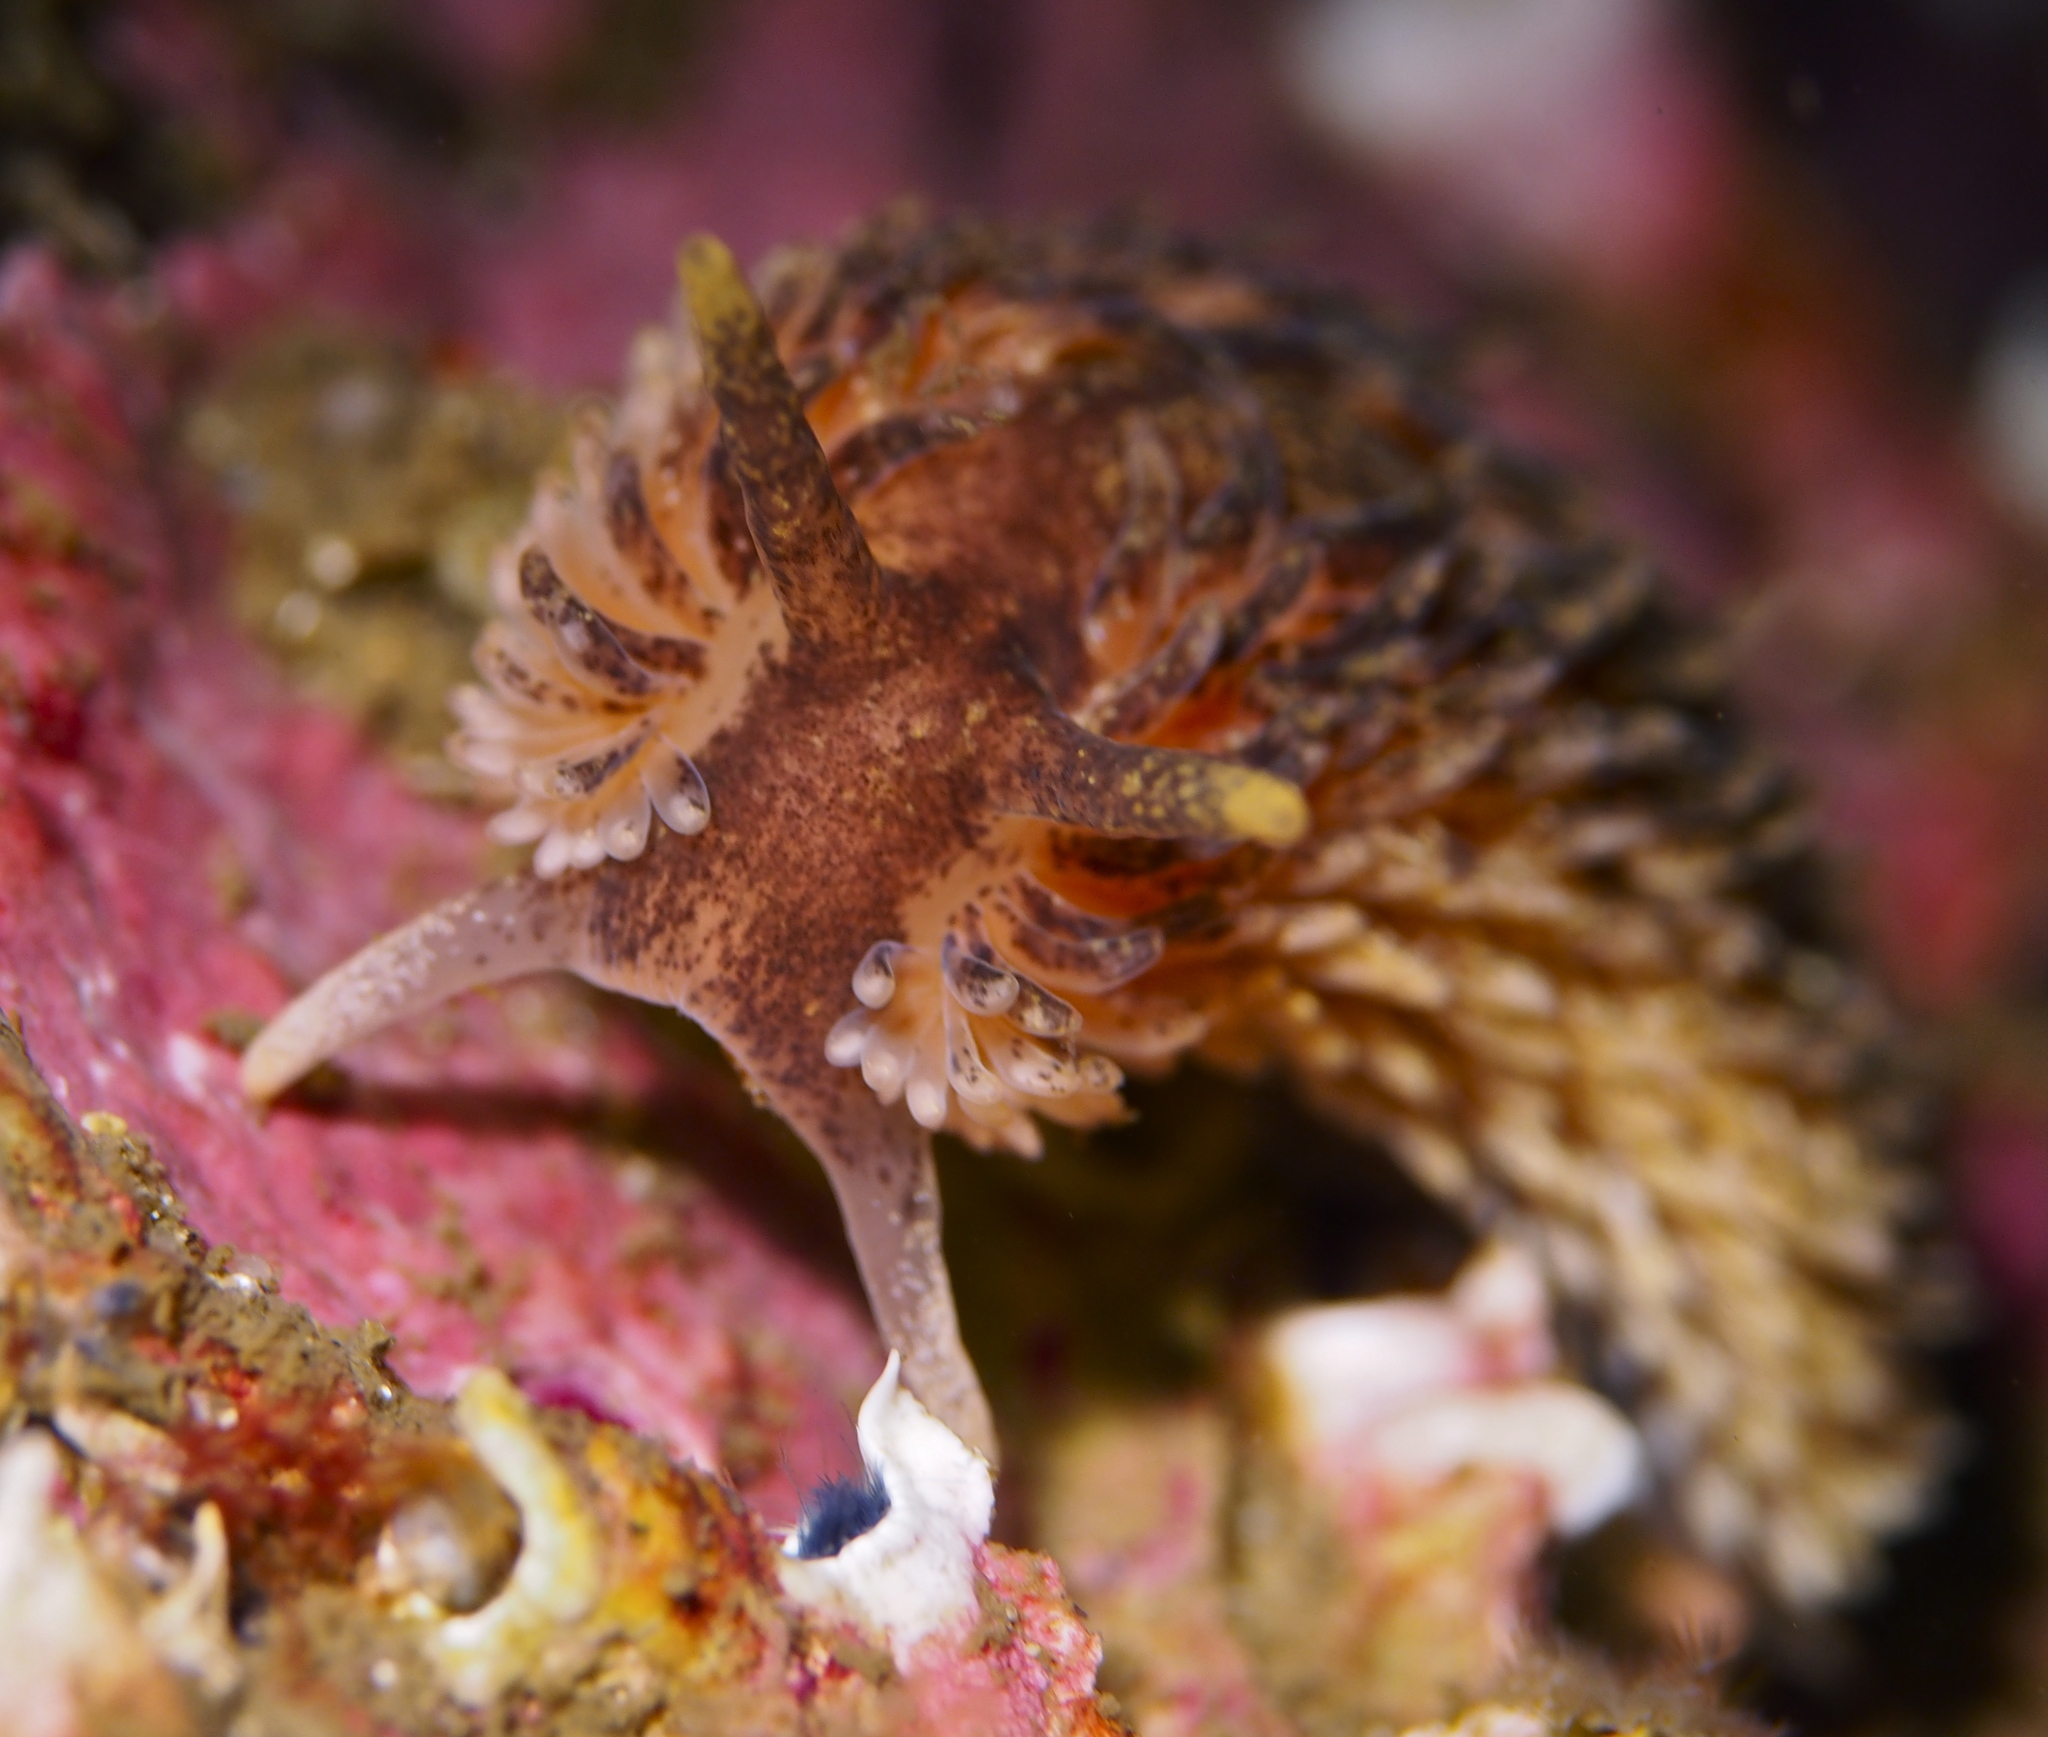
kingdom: Animalia
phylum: Mollusca
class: Gastropoda
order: Nudibranchia
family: Aeolidiidae
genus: Aeolidia
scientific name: Aeolidia papillosa
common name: Common grey sea slug
